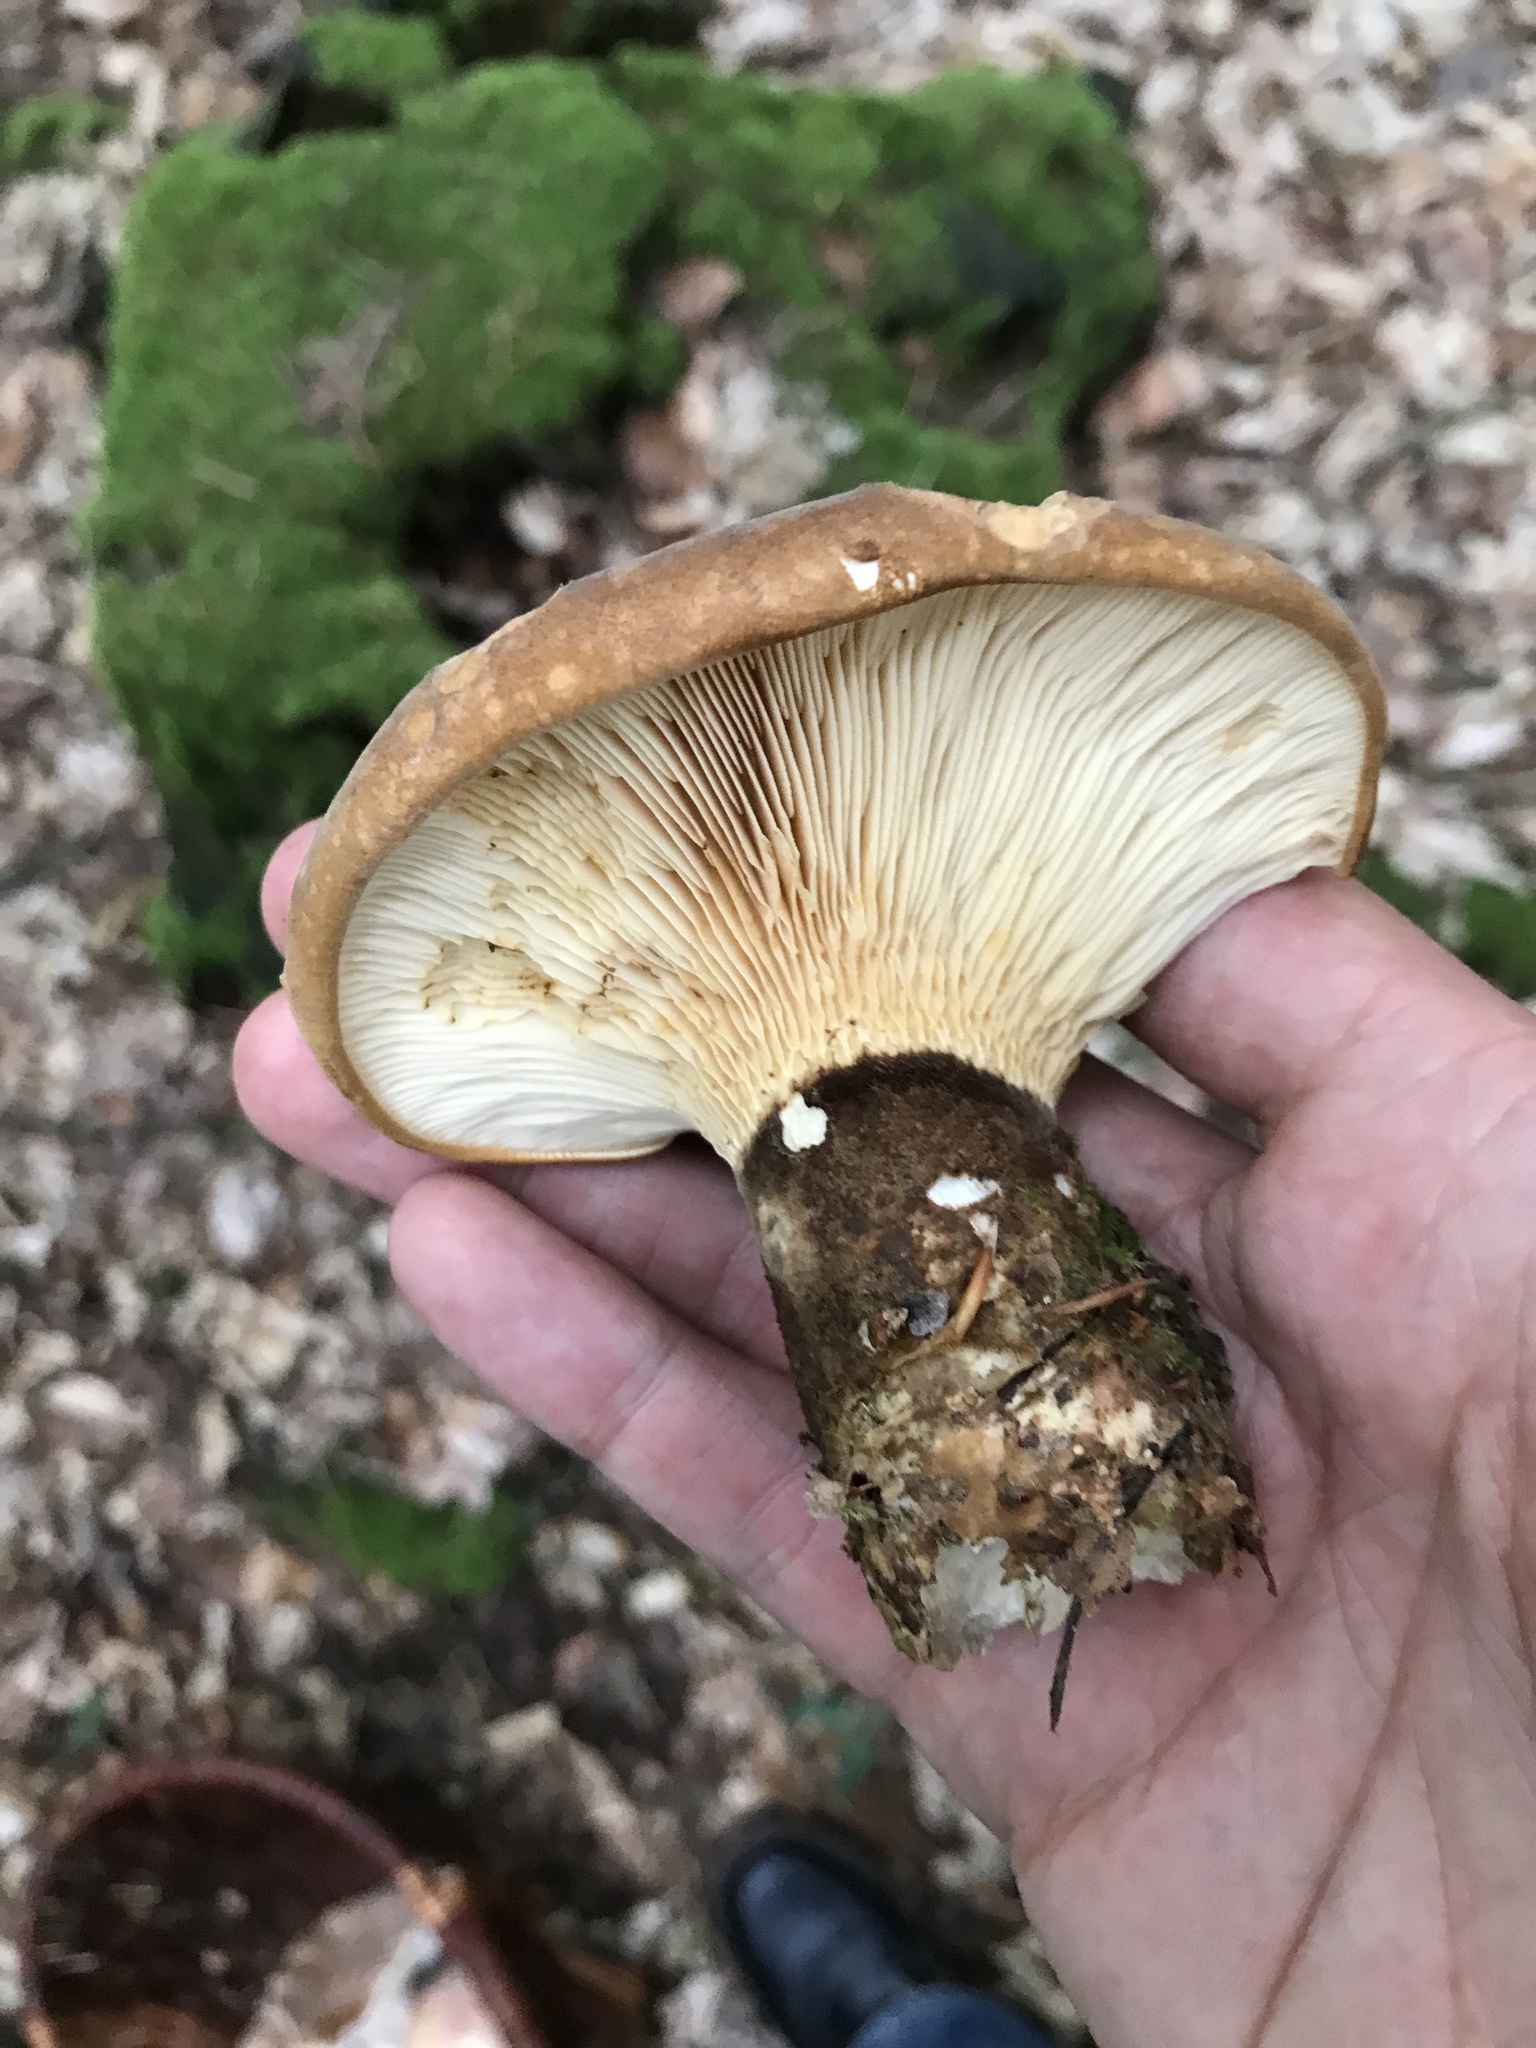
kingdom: Fungi
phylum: Basidiomycota
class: Agaricomycetes
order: Boletales
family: Tapinellaceae
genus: Tapinella
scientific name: Tapinella atrotomentosa
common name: Velvet rollrim
